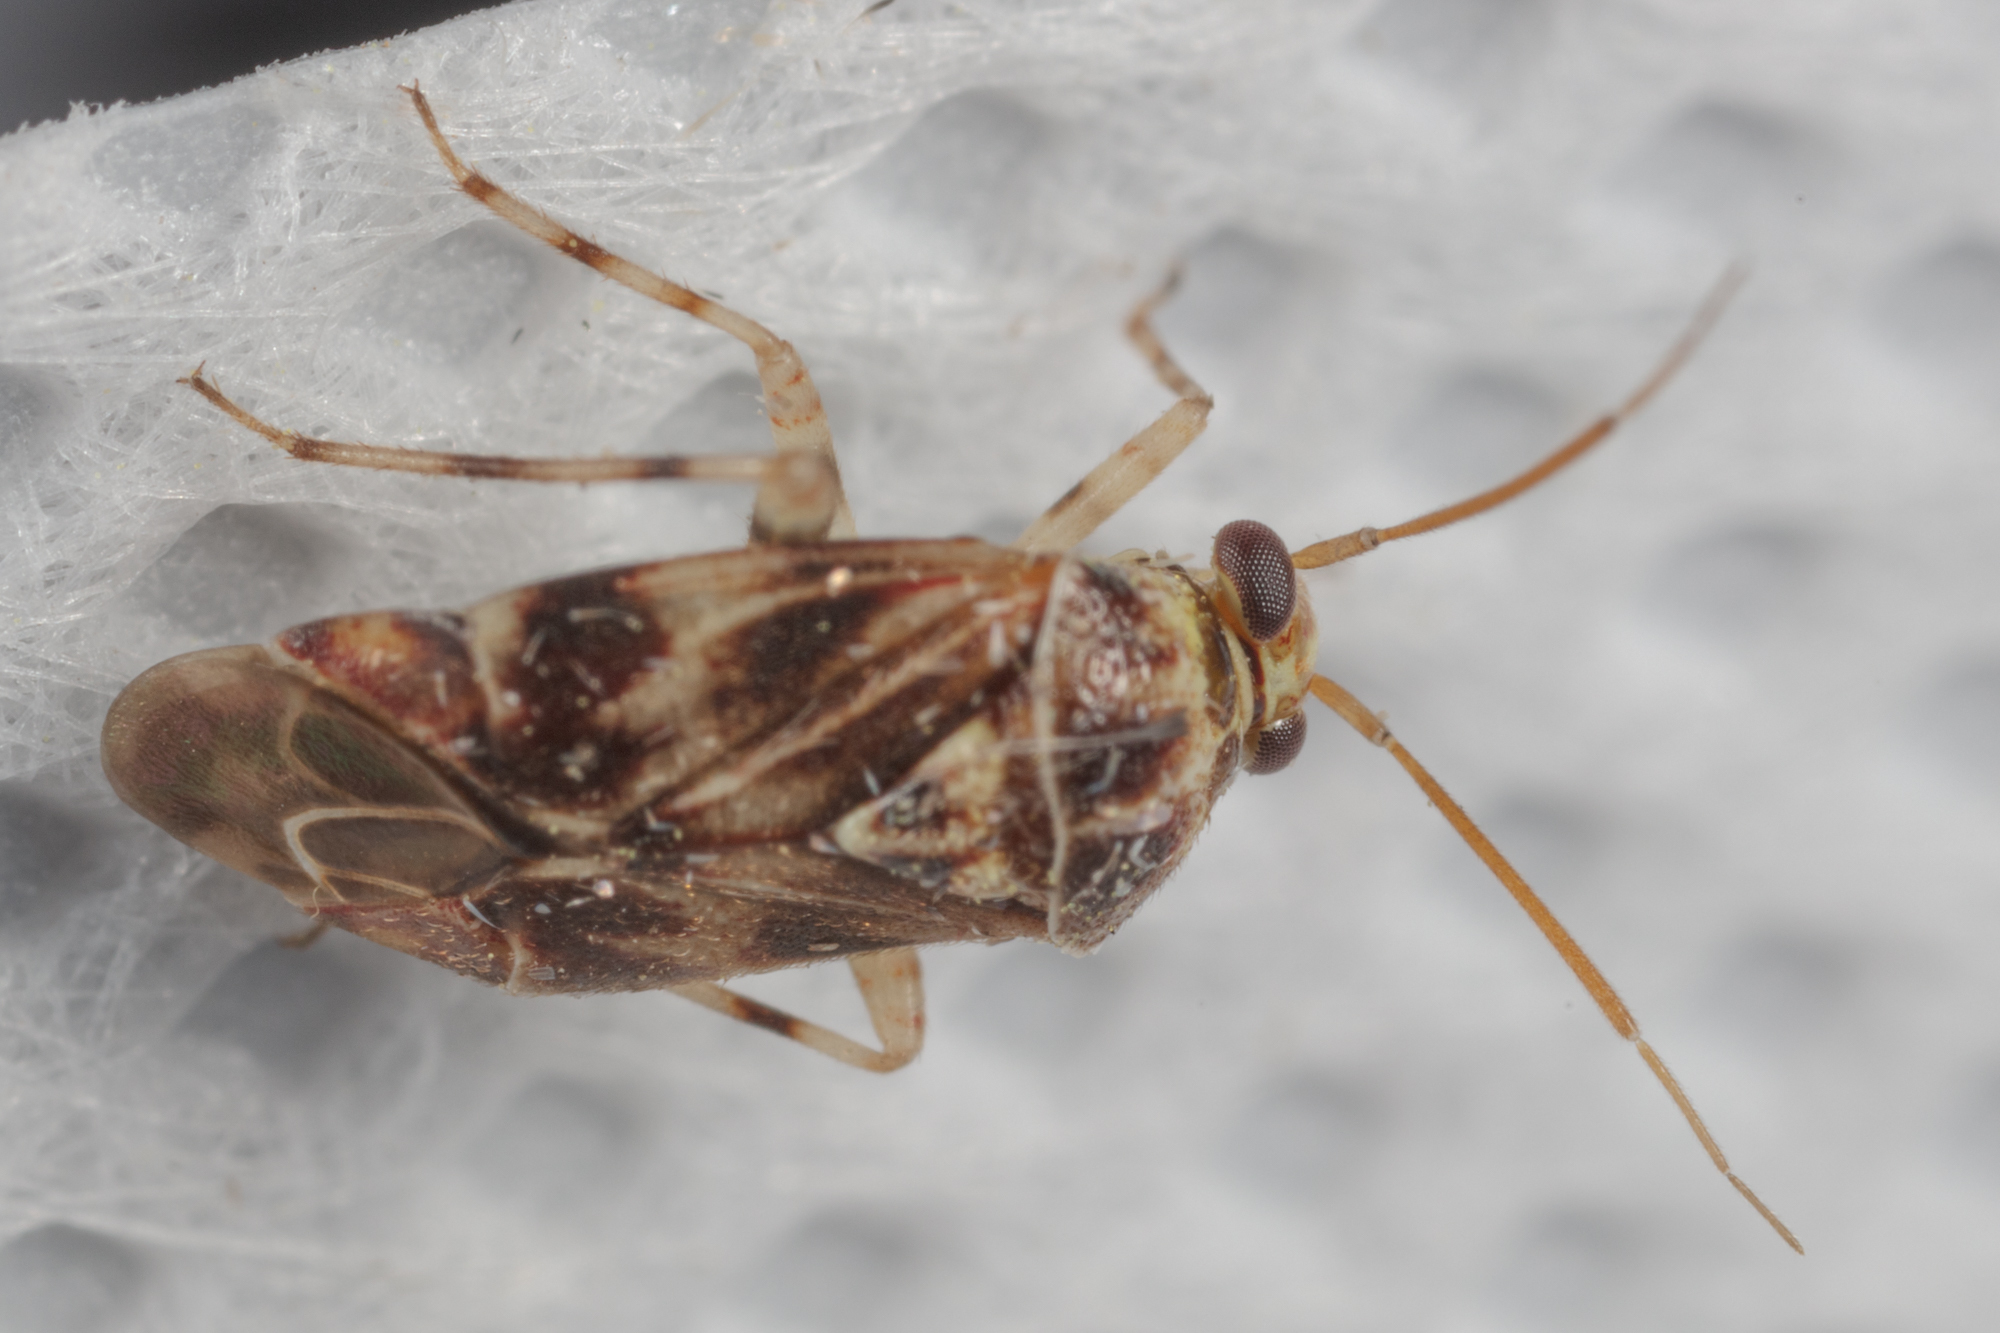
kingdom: Animalia
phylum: Arthropoda
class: Insecta
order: Hemiptera
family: Miridae
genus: Tropidosteptes
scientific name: Tropidosteptes quercicola
